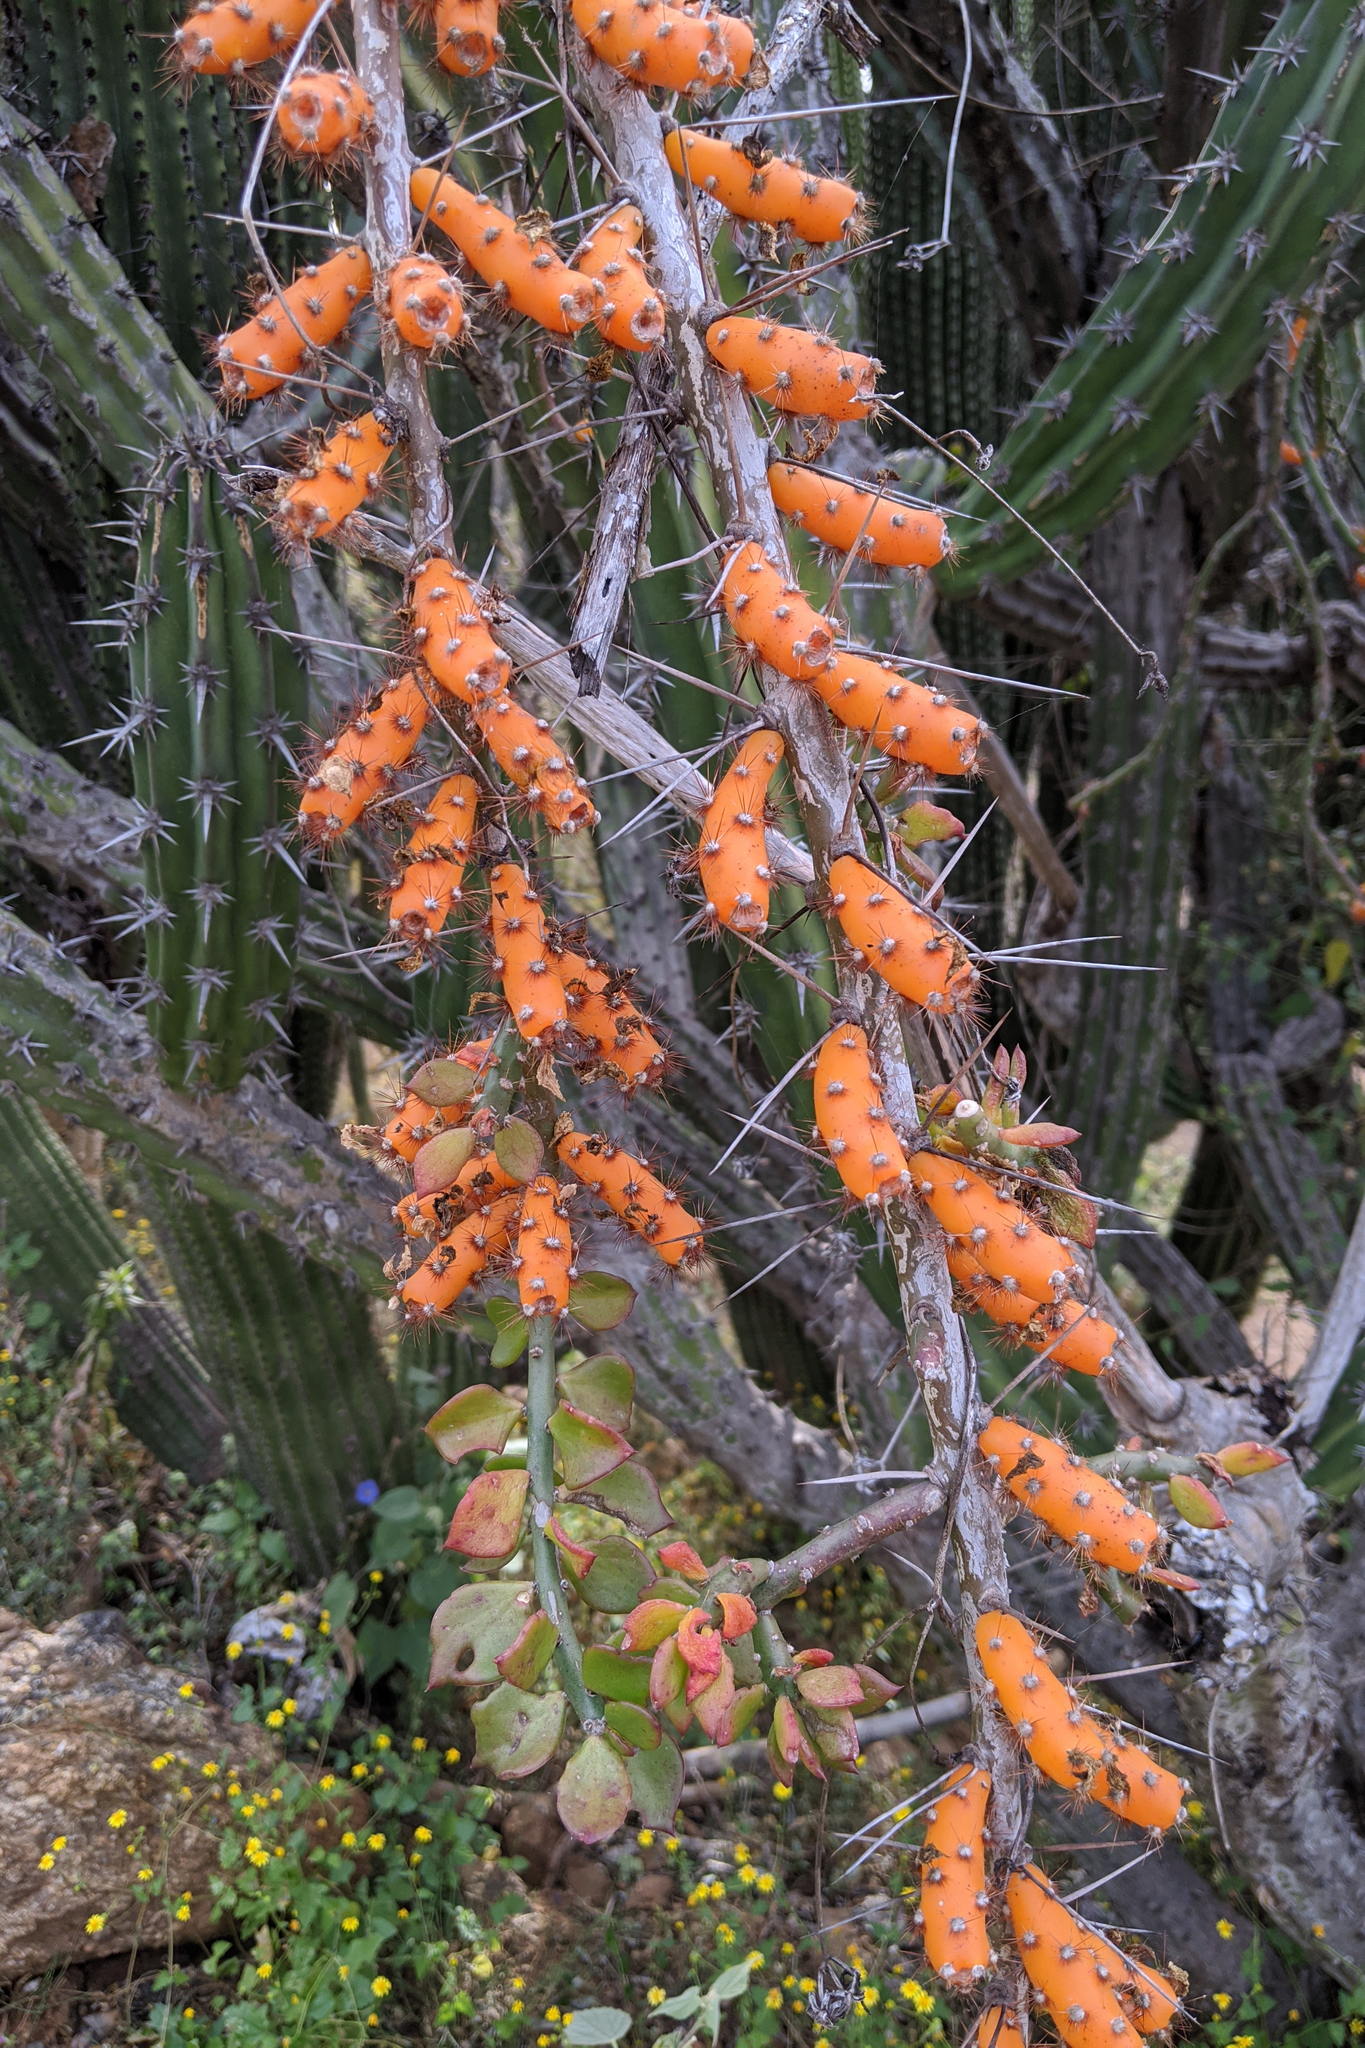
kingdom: Plantae
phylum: Tracheophyta
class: Magnoliopsida
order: Caryophyllales
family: Cactaceae
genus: Pereskiopsis
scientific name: Pereskiopsis porteri
